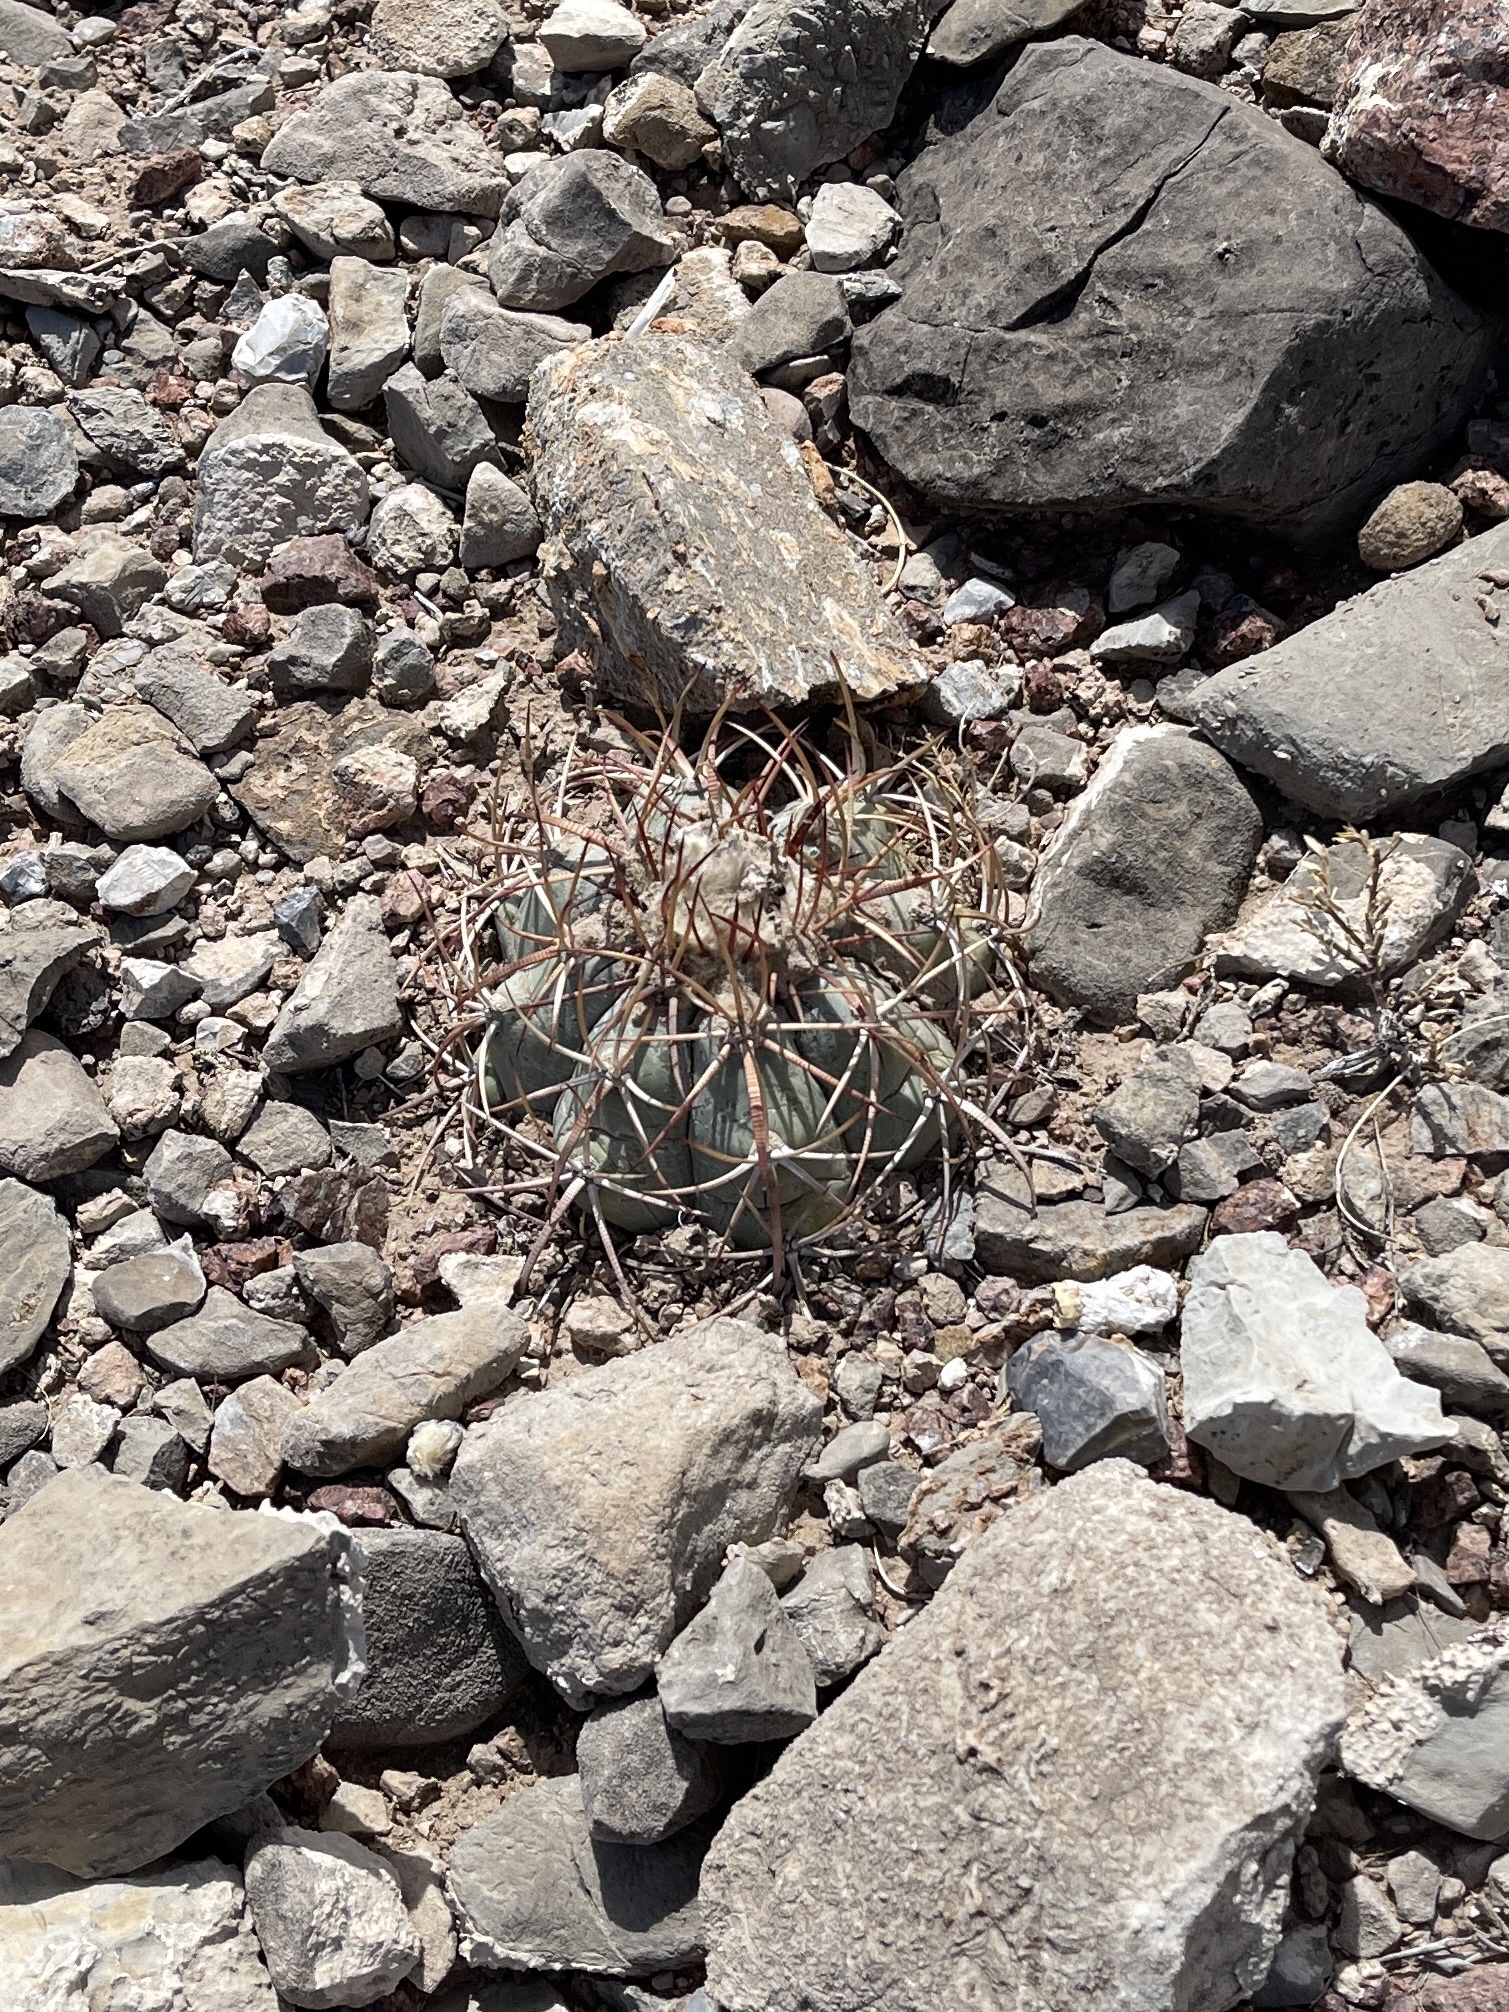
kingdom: Plantae
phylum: Tracheophyta
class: Magnoliopsida
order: Caryophyllales
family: Cactaceae
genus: Echinocactus
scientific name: Echinocactus horizonthalonius
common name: Devilshead
